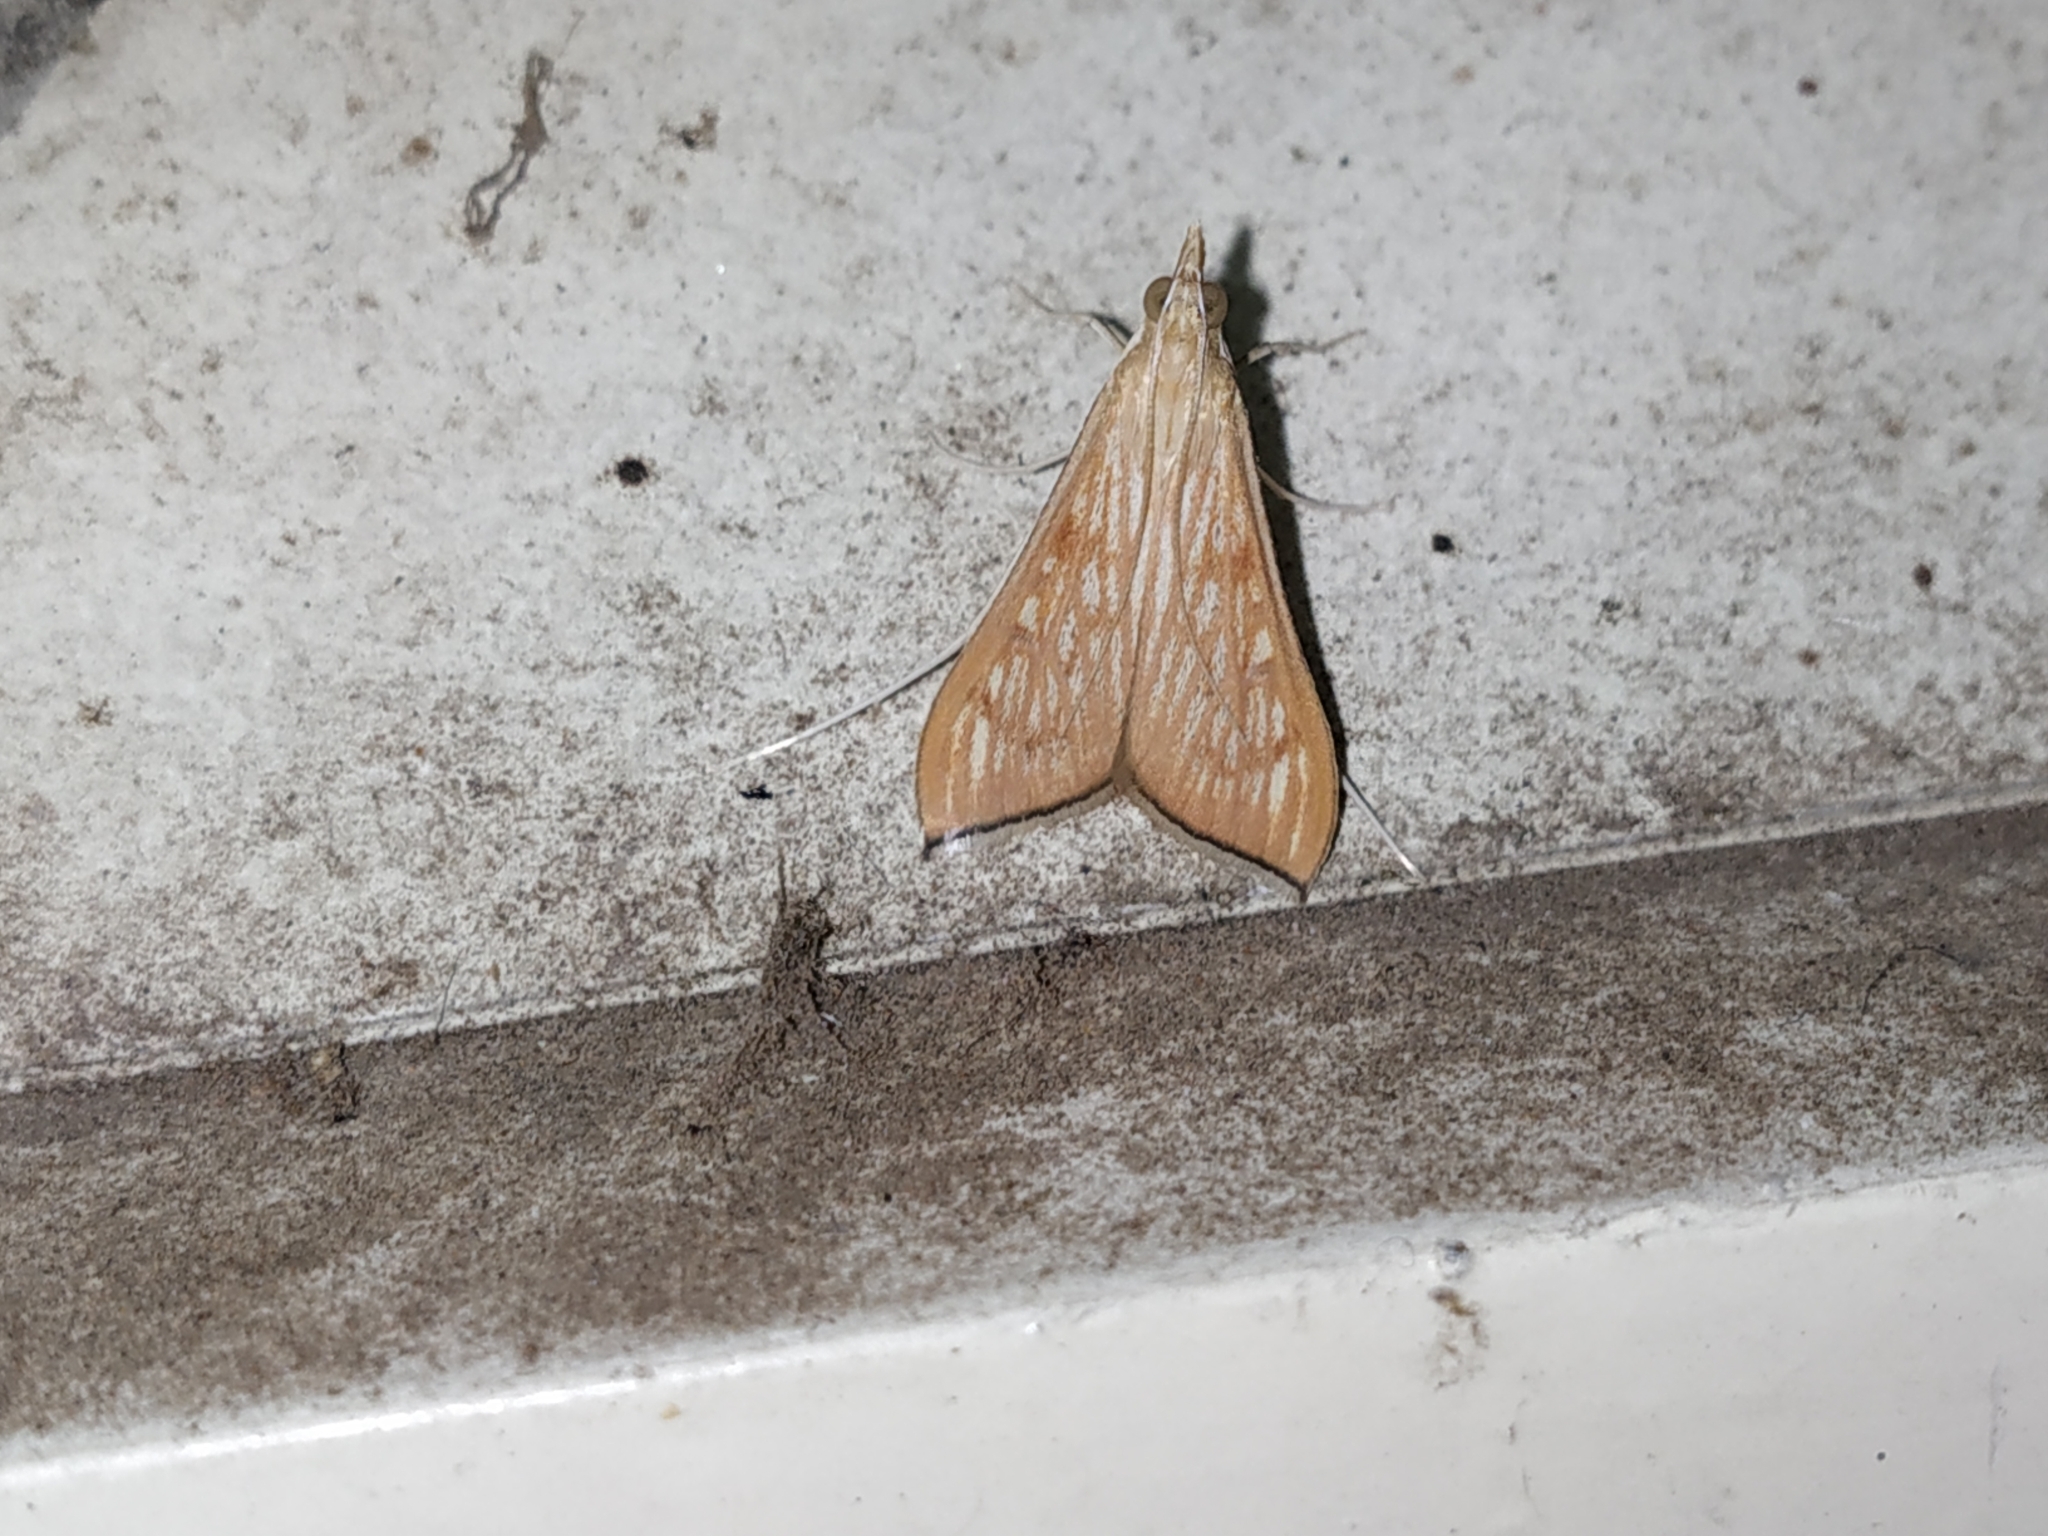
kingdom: Animalia
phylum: Arthropoda
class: Insecta
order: Lepidoptera
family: Crambidae
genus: Antigastra
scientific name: Antigastra catalaunalis
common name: Spanish dot
